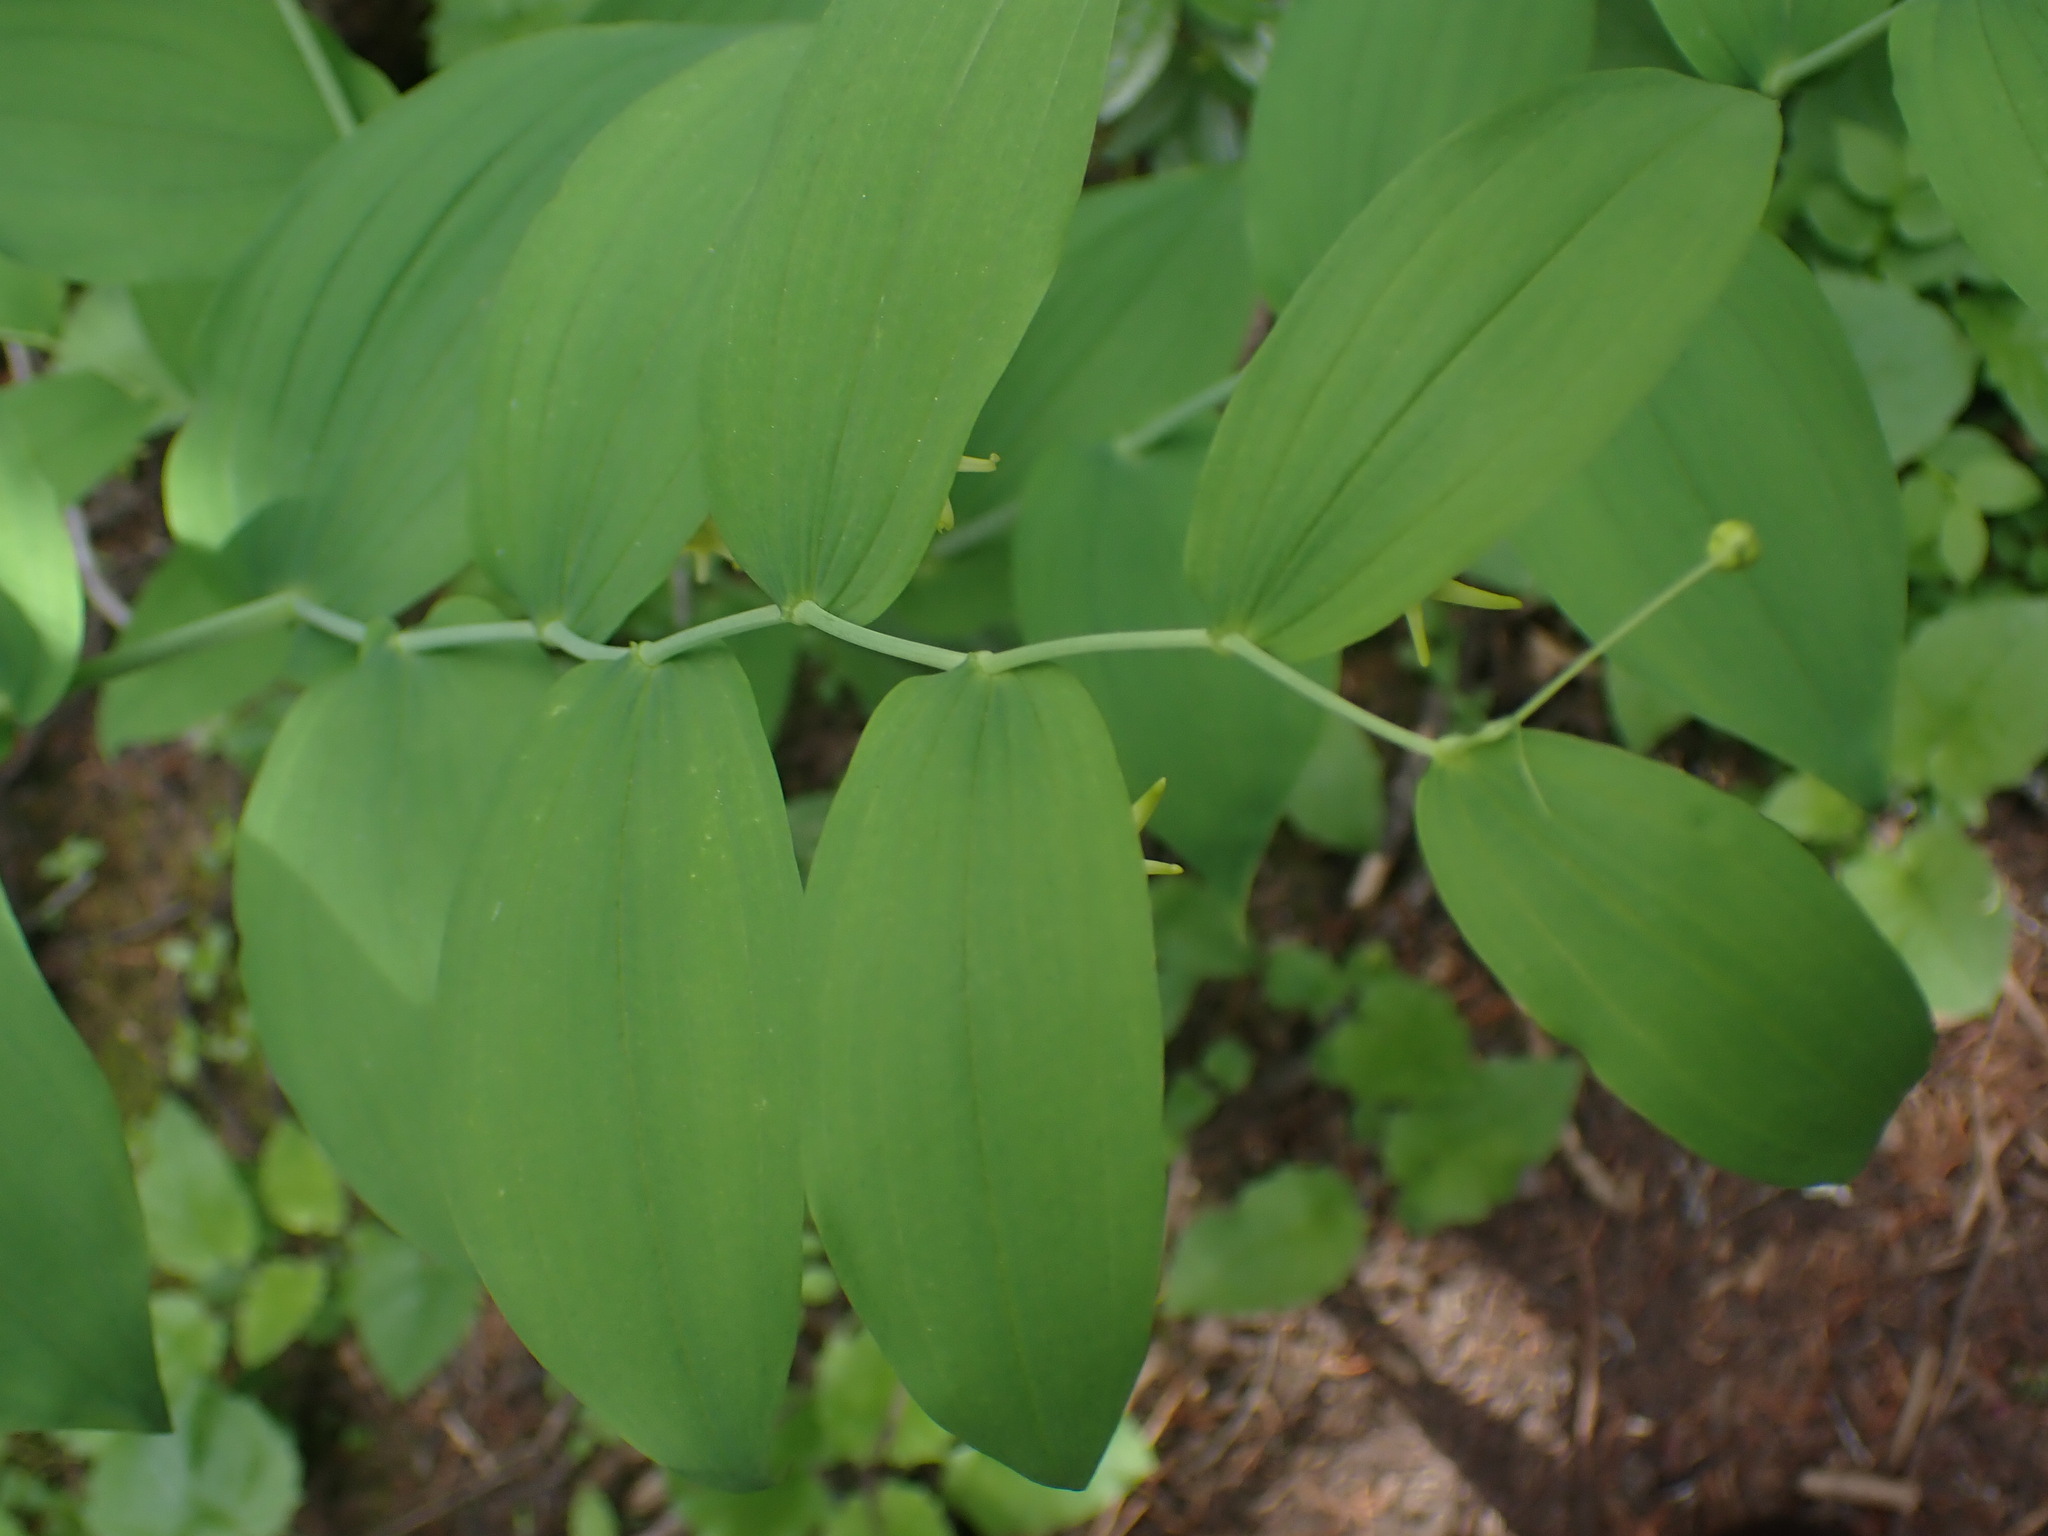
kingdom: Plantae
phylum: Tracheophyta
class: Liliopsida
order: Liliales
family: Liliaceae
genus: Streptopus
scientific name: Streptopus amplexifolius
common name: Clasp twisted stalk
